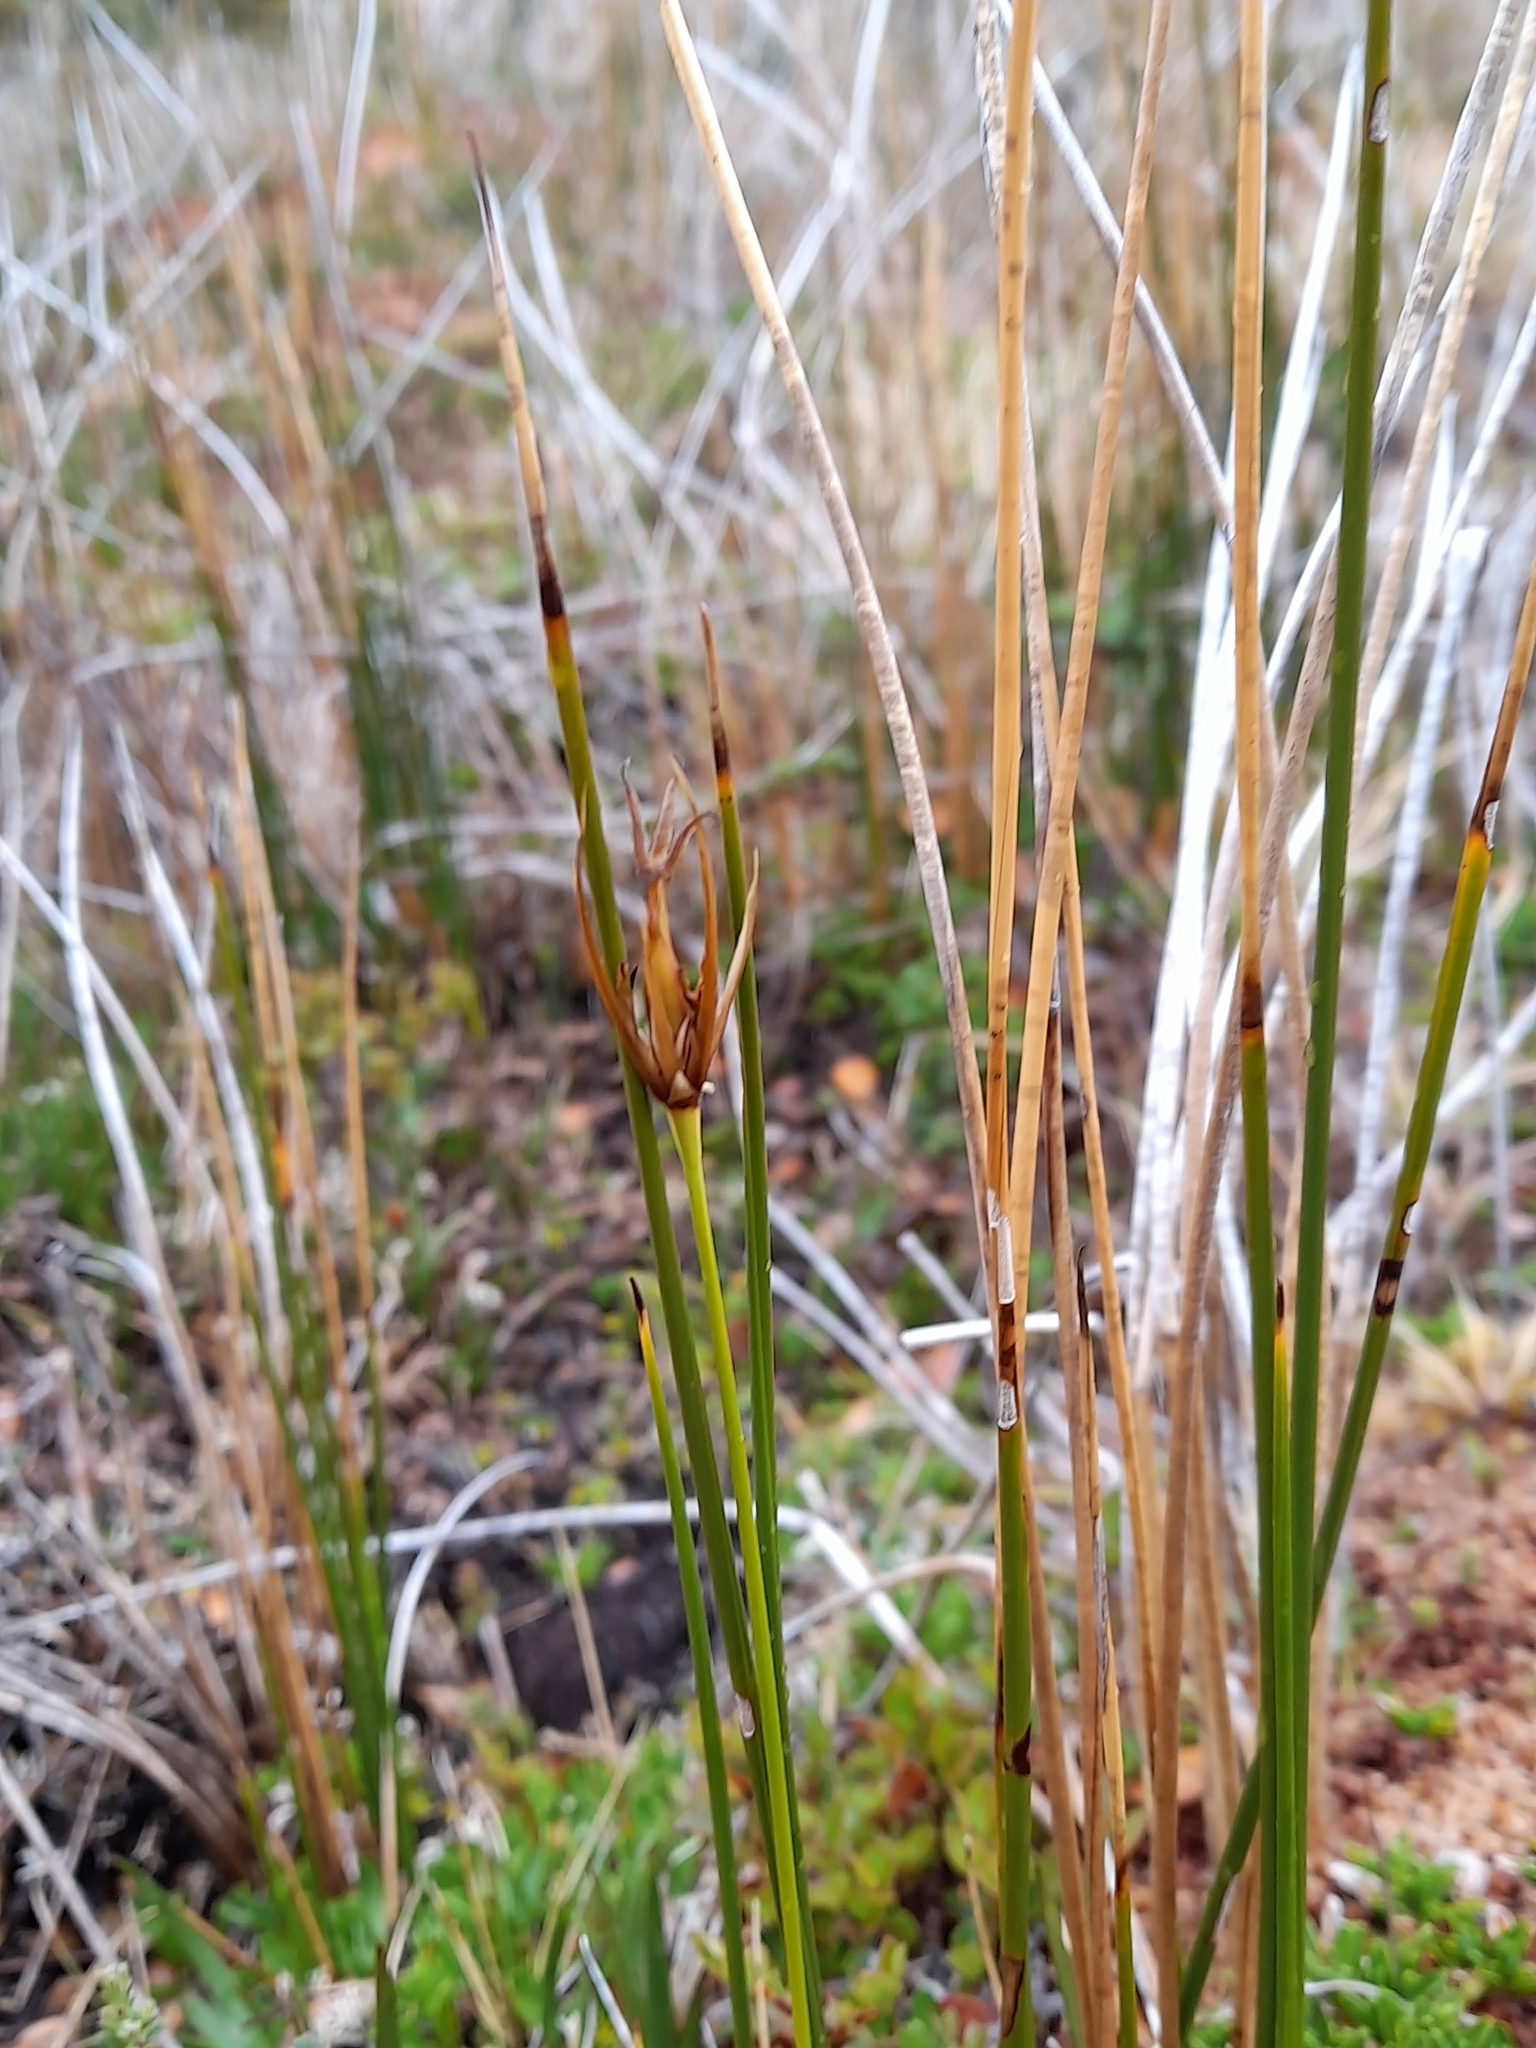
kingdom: Plantae
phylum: Tracheophyta
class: Liliopsida
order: Poales
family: Juncaceae
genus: Marsippospermum
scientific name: Marsippospermum grandiflorum
